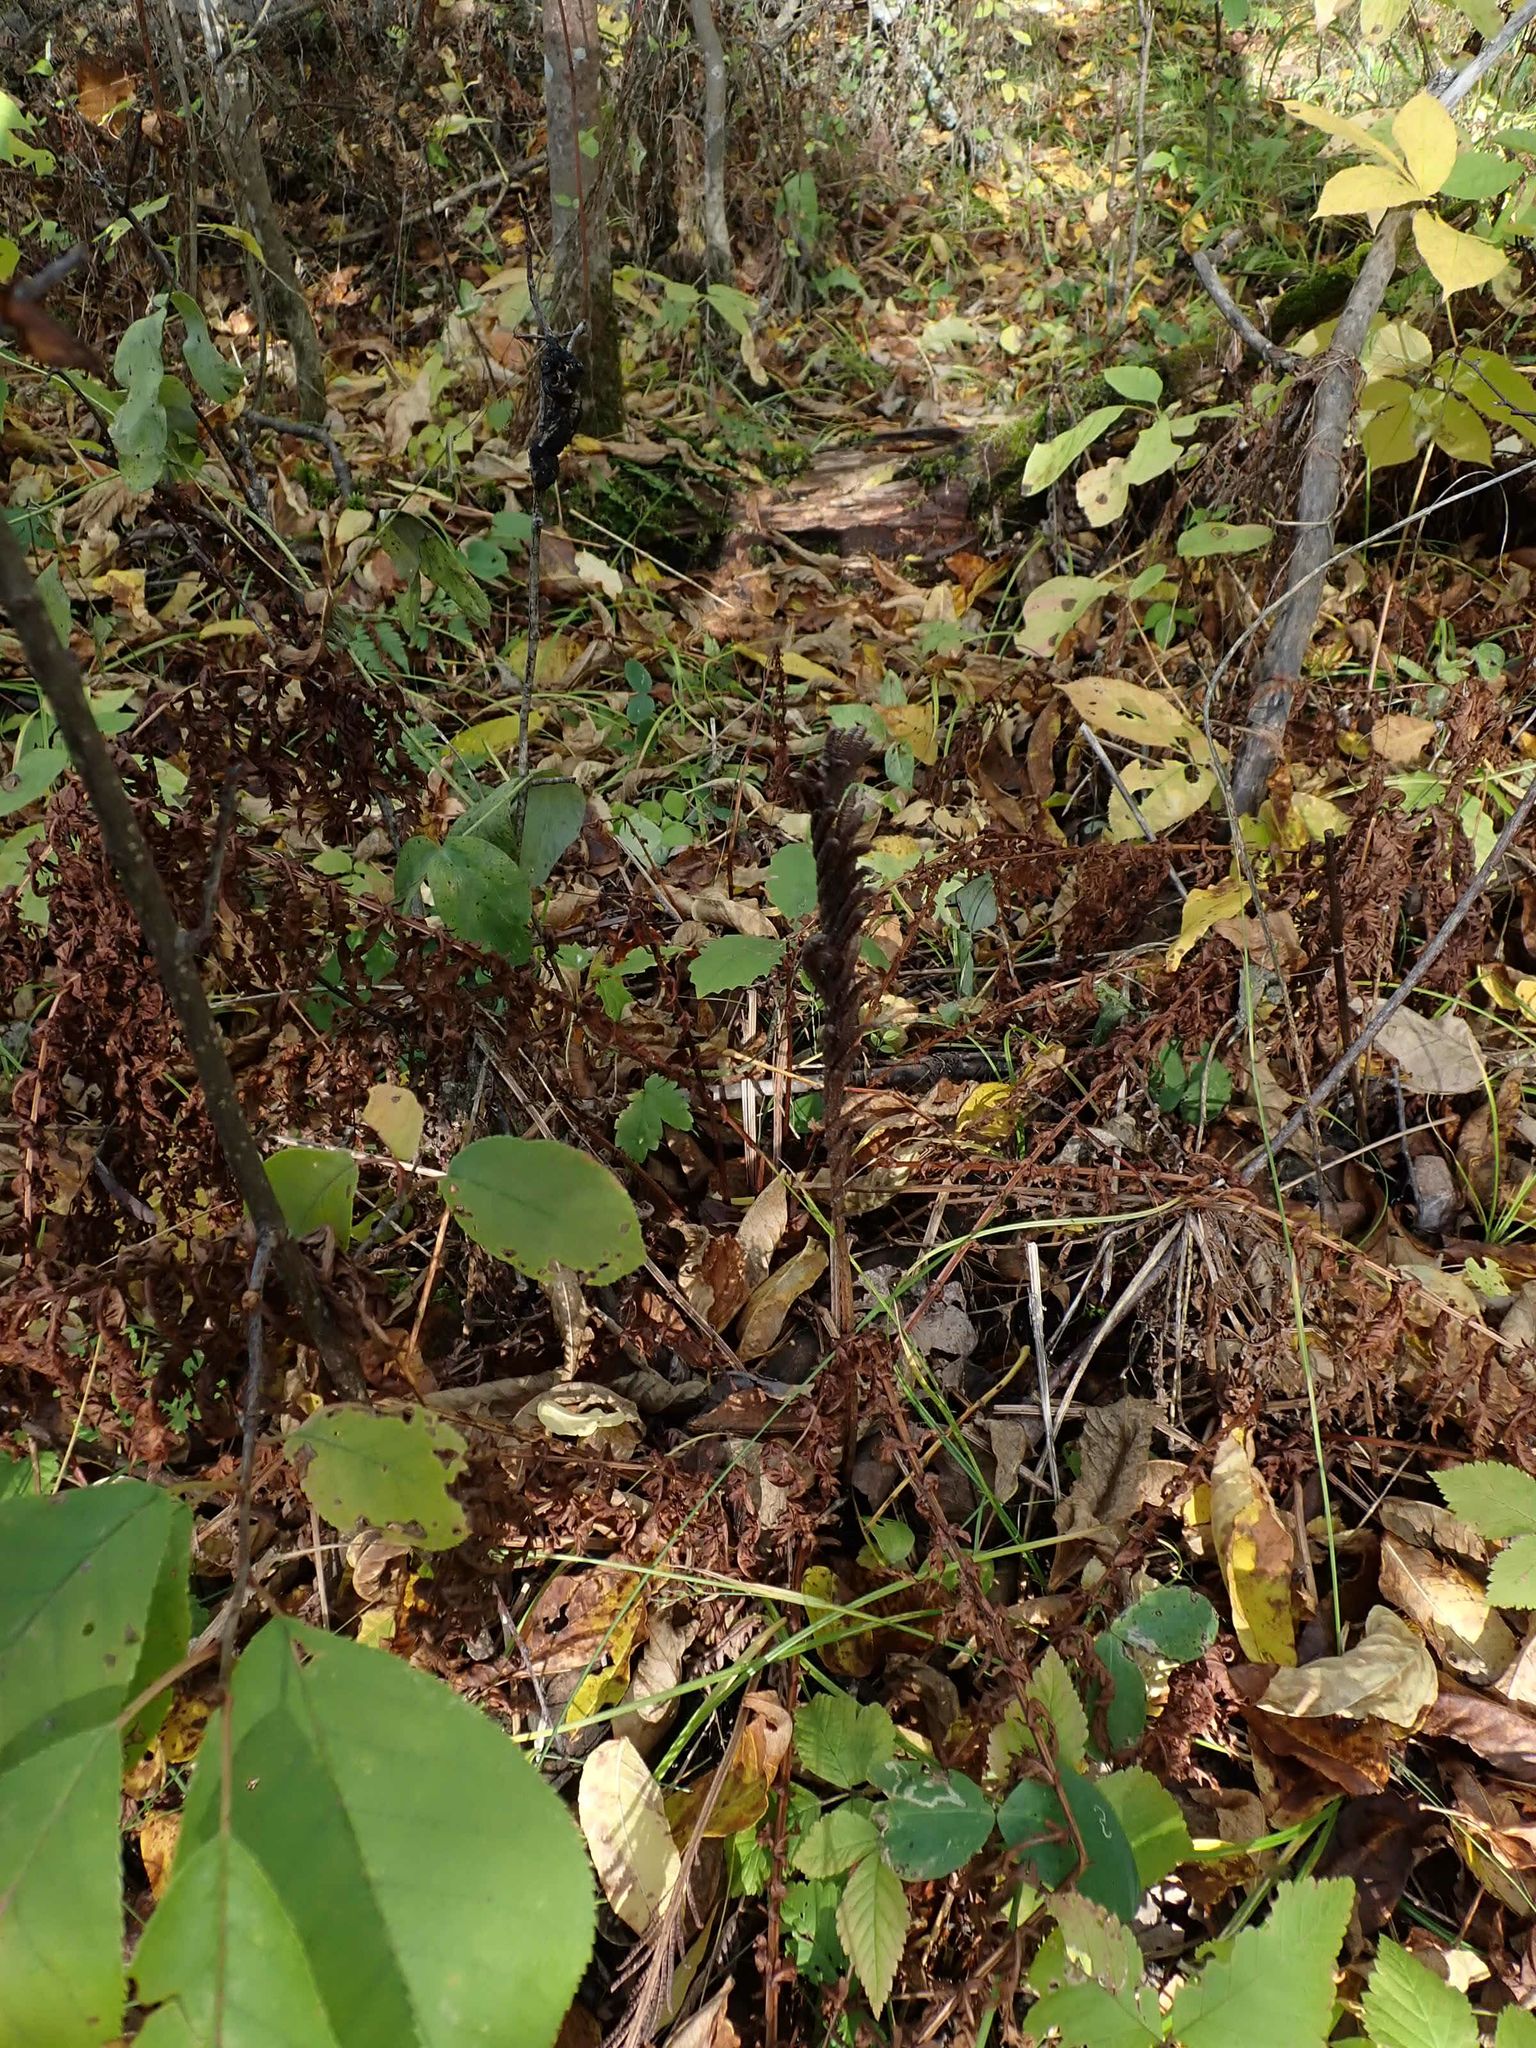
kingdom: Plantae
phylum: Tracheophyta
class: Polypodiopsida
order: Polypodiales
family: Onocleaceae
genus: Matteuccia
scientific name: Matteuccia struthiopteris
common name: Ostrich fern
